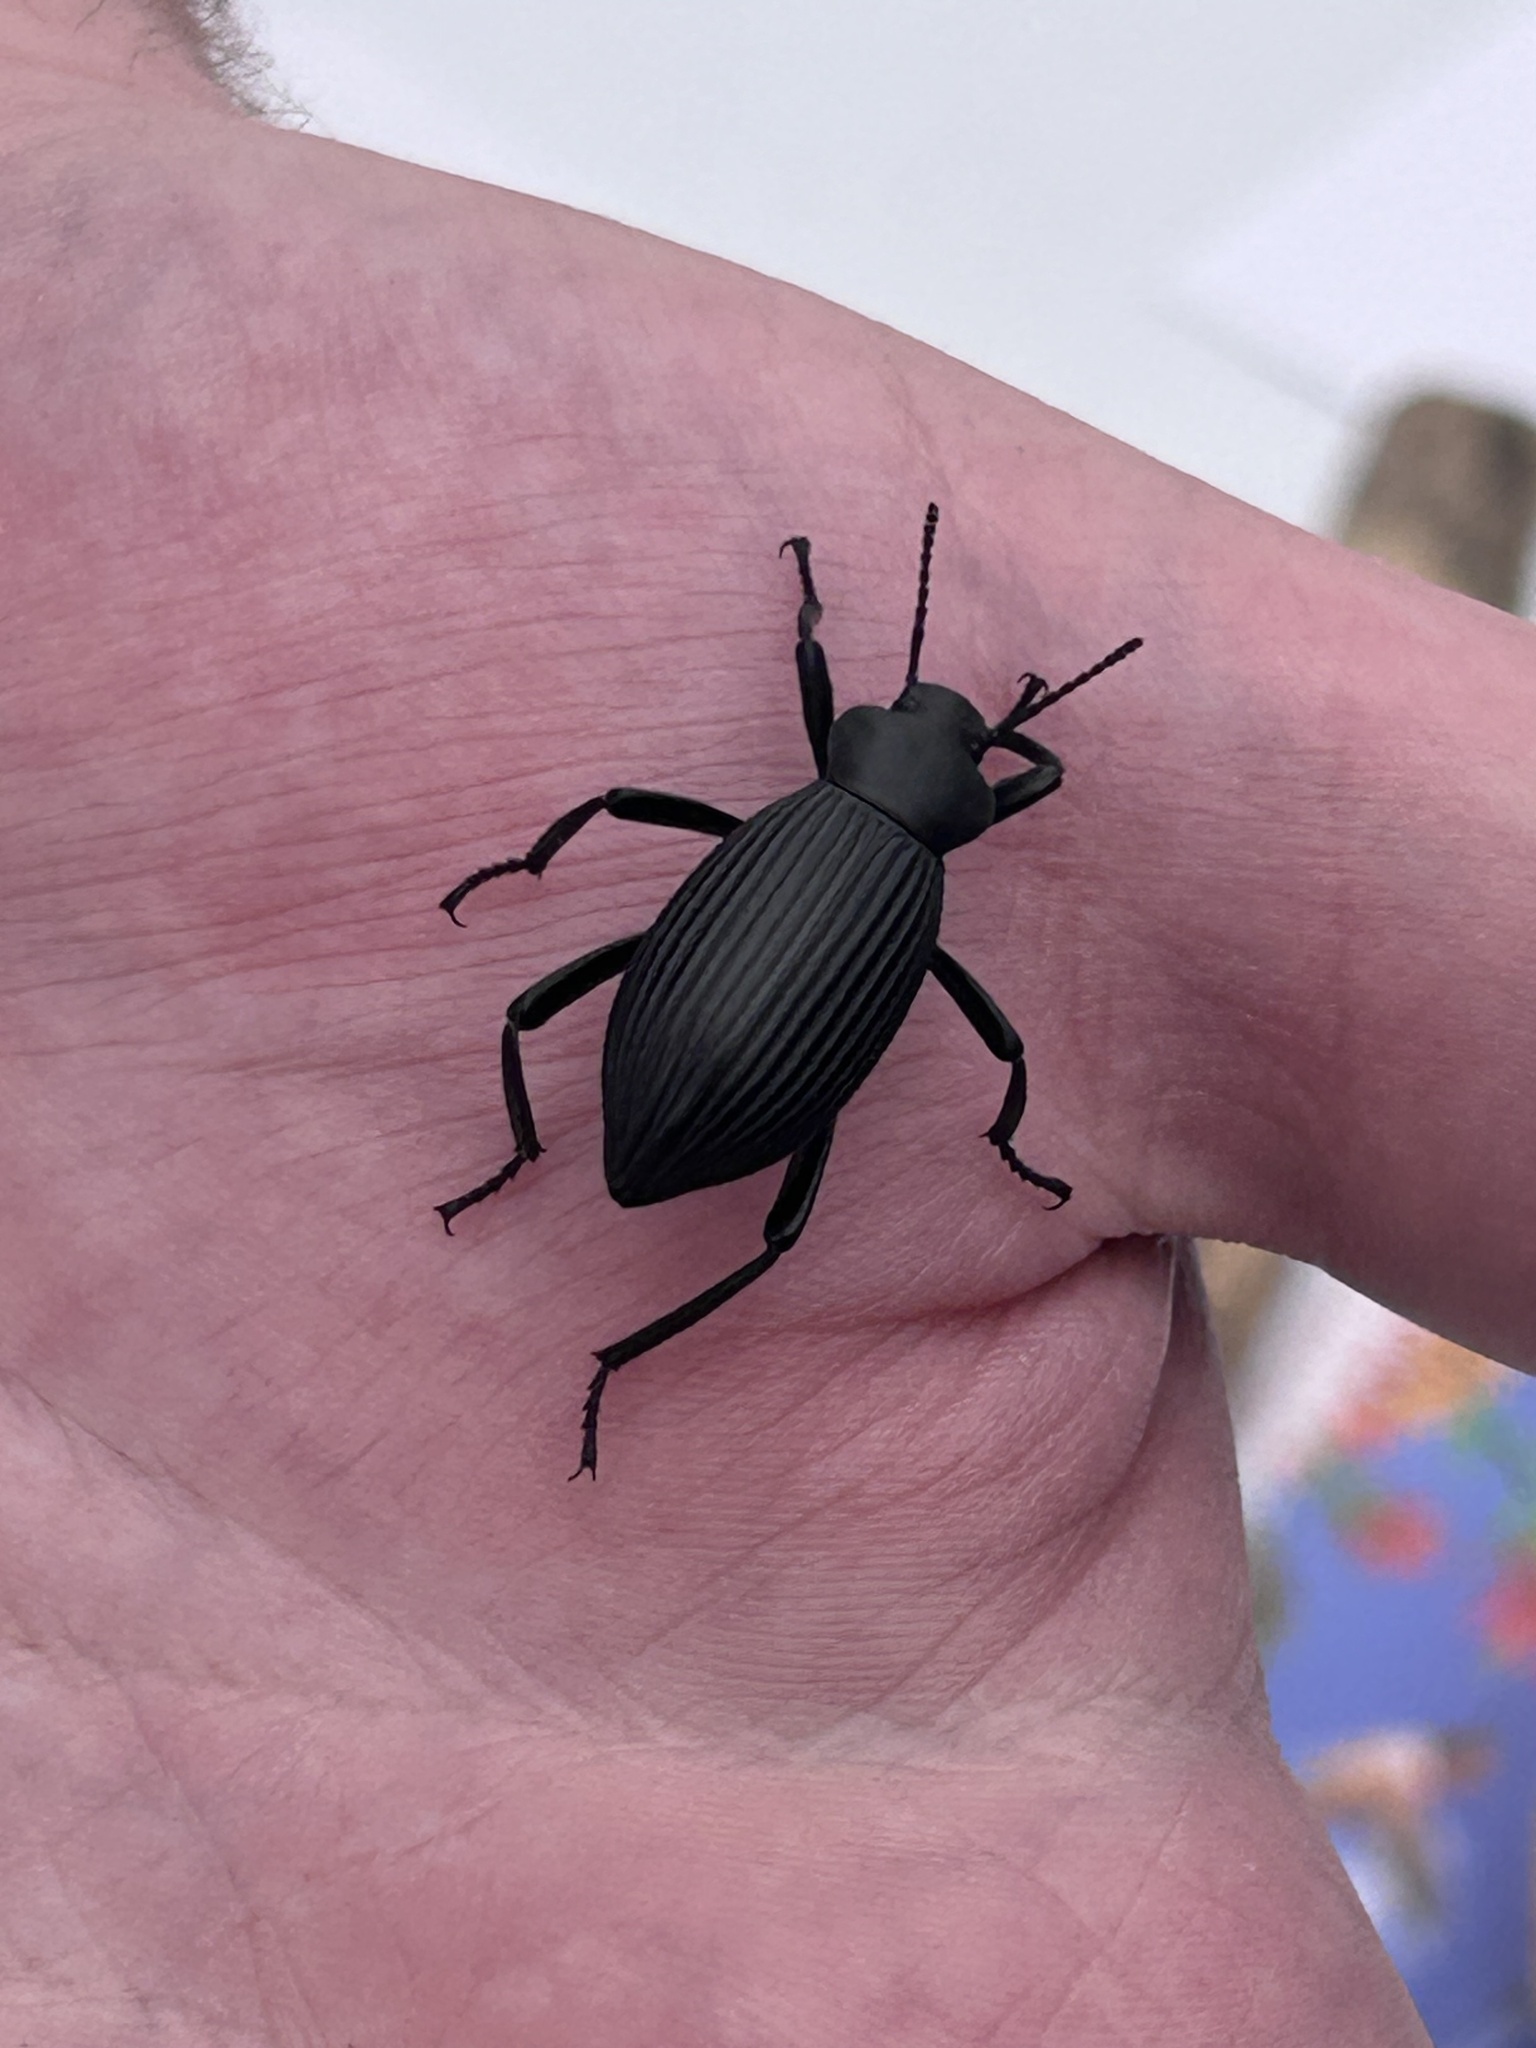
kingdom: Animalia
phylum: Arthropoda
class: Insecta
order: Coleoptera
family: Tenebrionidae
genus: Eleodes
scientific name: Eleodes hispilabris
